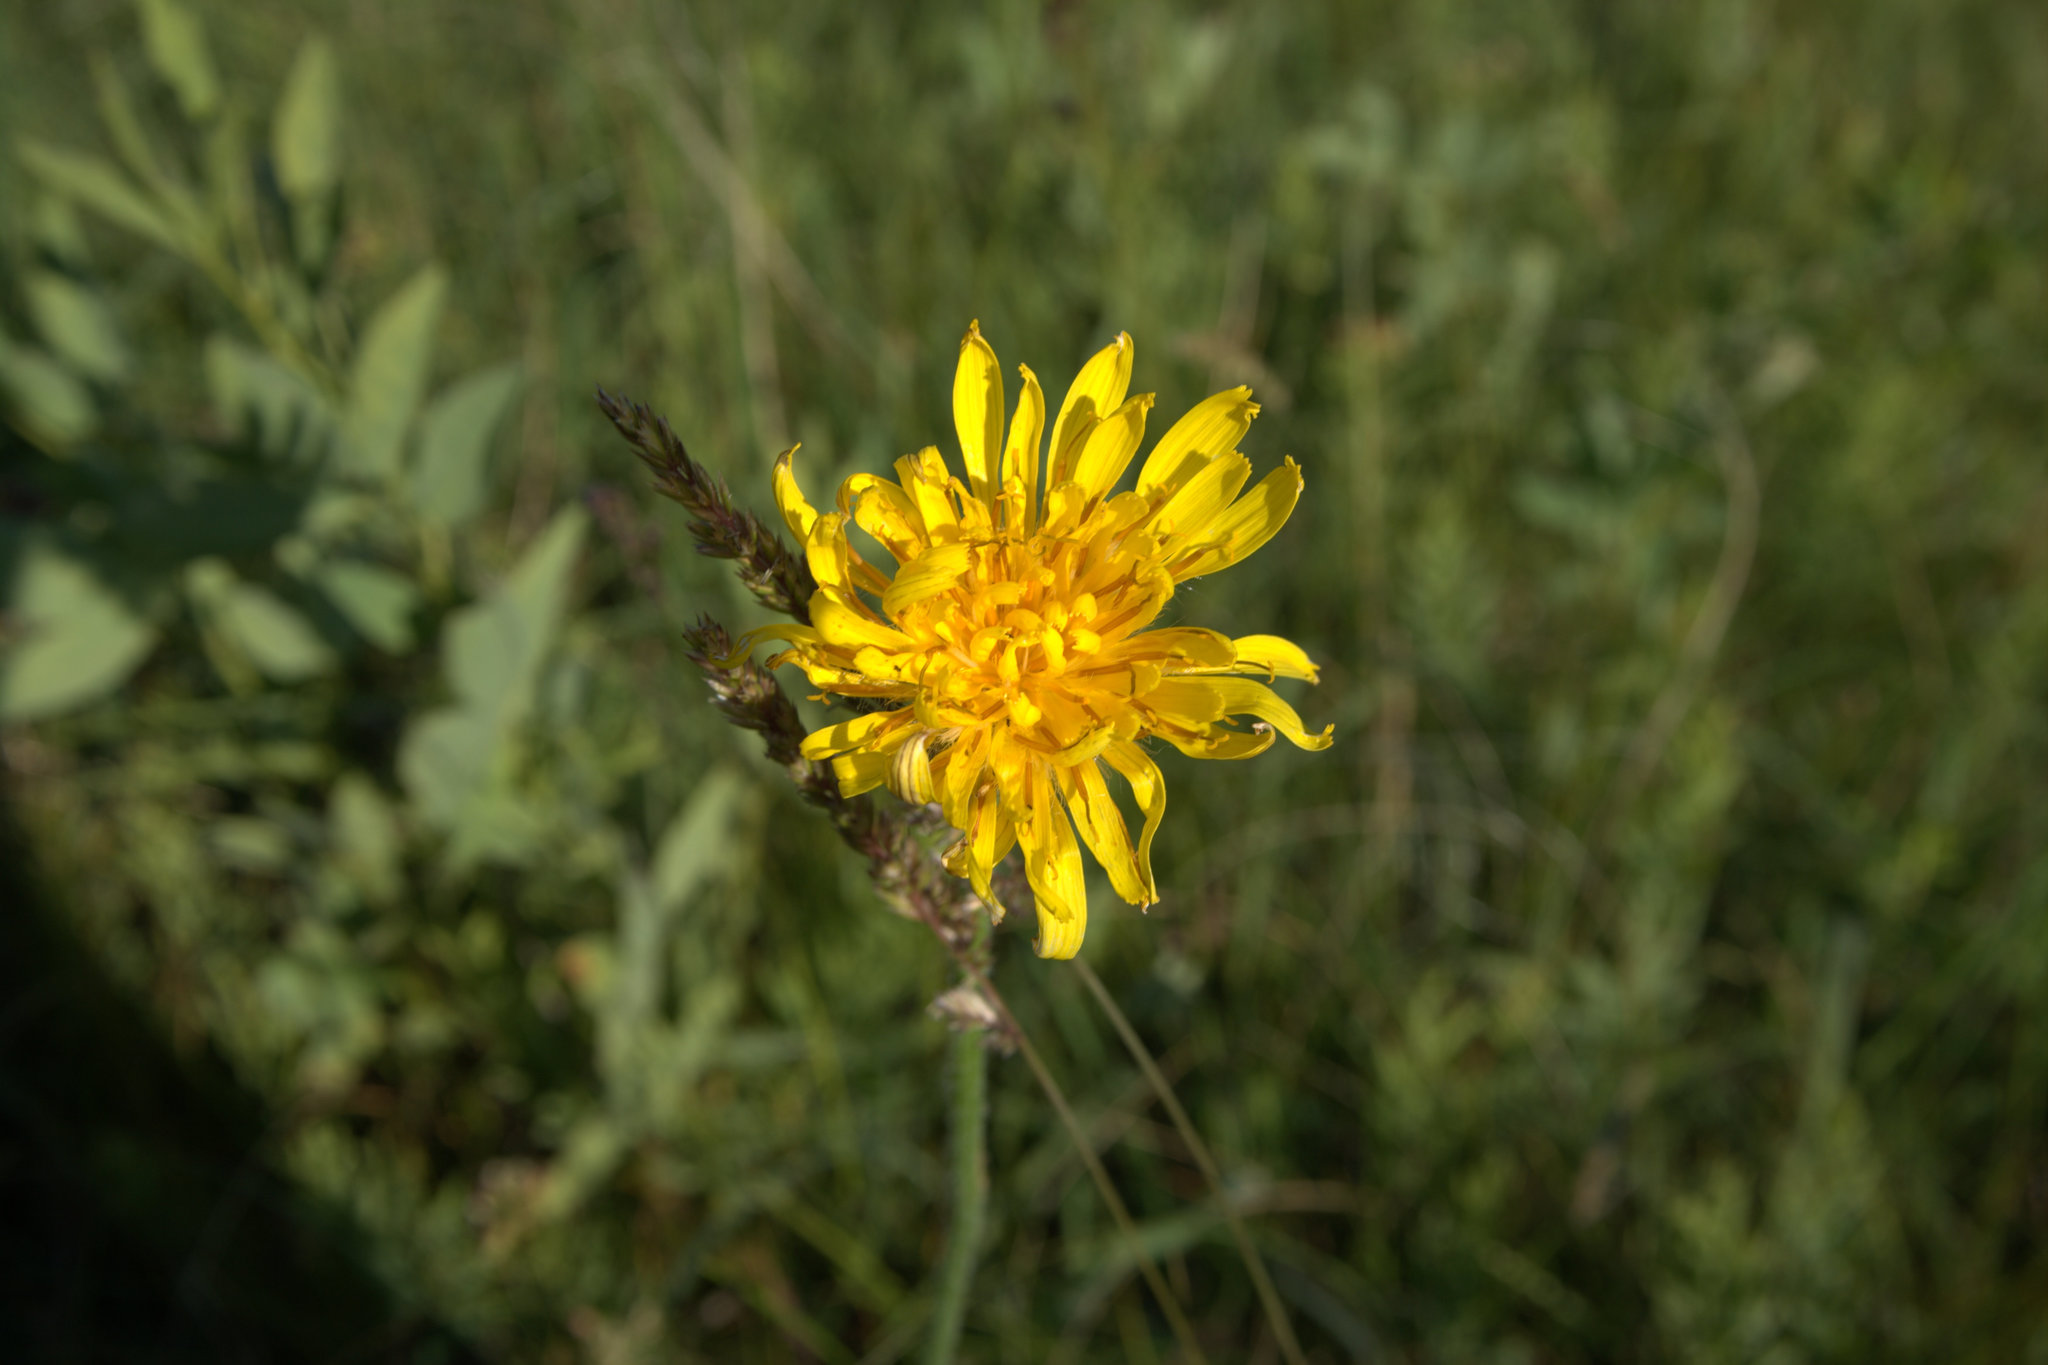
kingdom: Plantae
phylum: Tracheophyta
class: Magnoliopsida
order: Asterales
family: Asteraceae
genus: Agoseris
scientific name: Agoseris glauca
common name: Prairie agoseris
